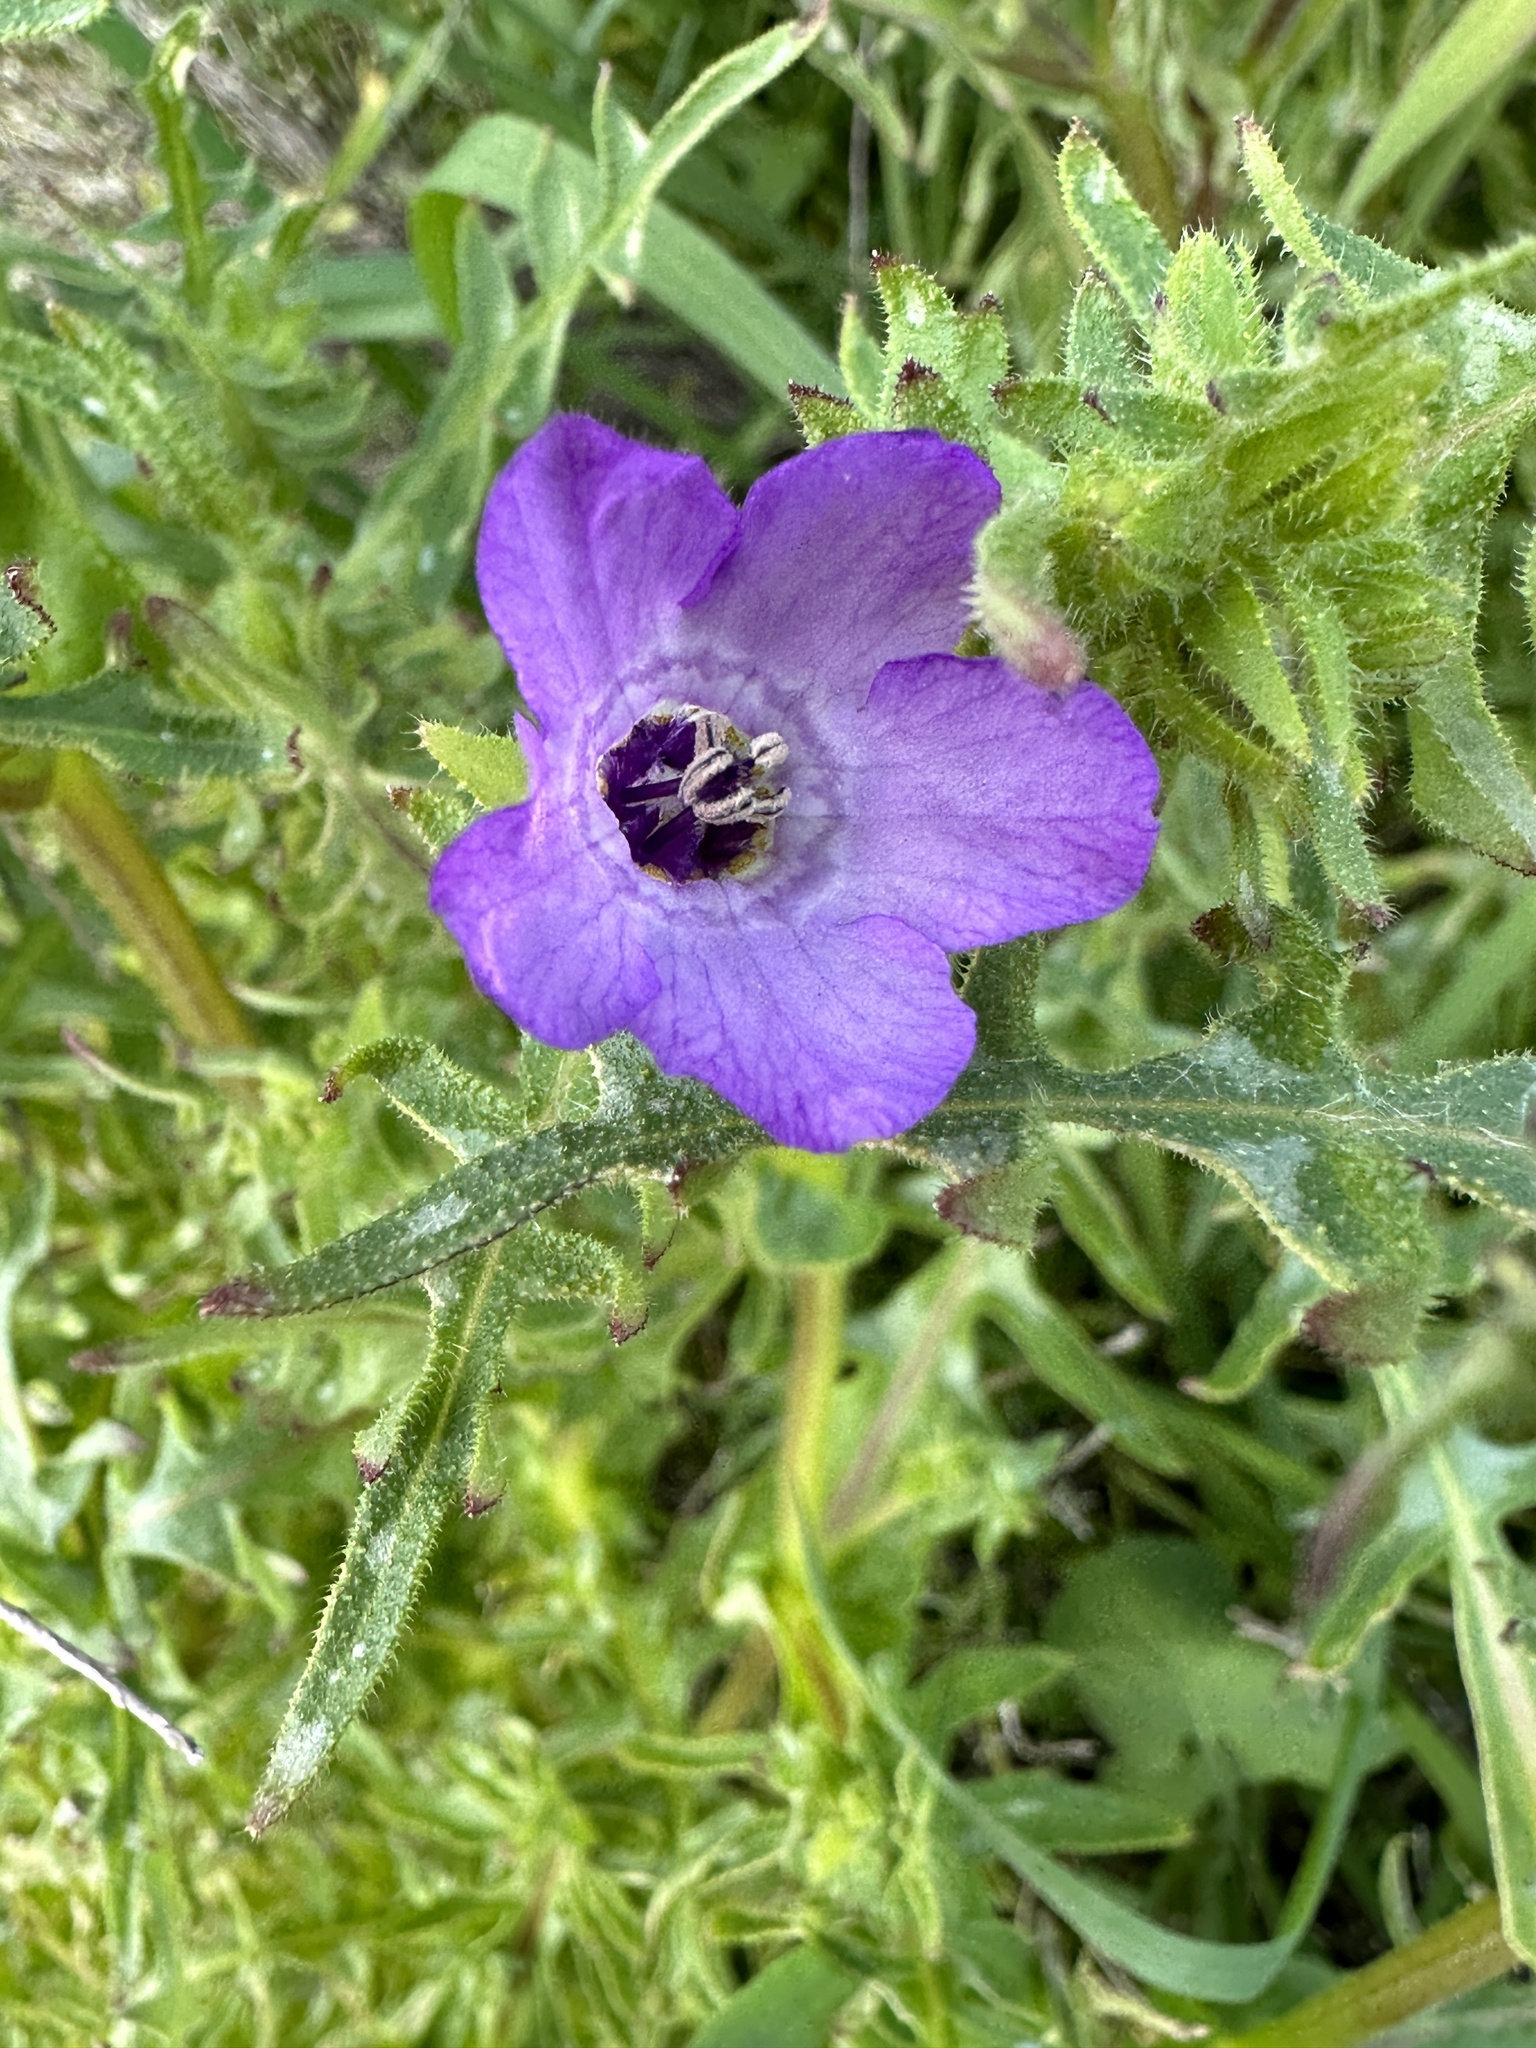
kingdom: Plantae
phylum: Tracheophyta
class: Magnoliopsida
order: Boraginales
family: Hydrophyllaceae
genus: Pholistoma
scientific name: Pholistoma auritum
